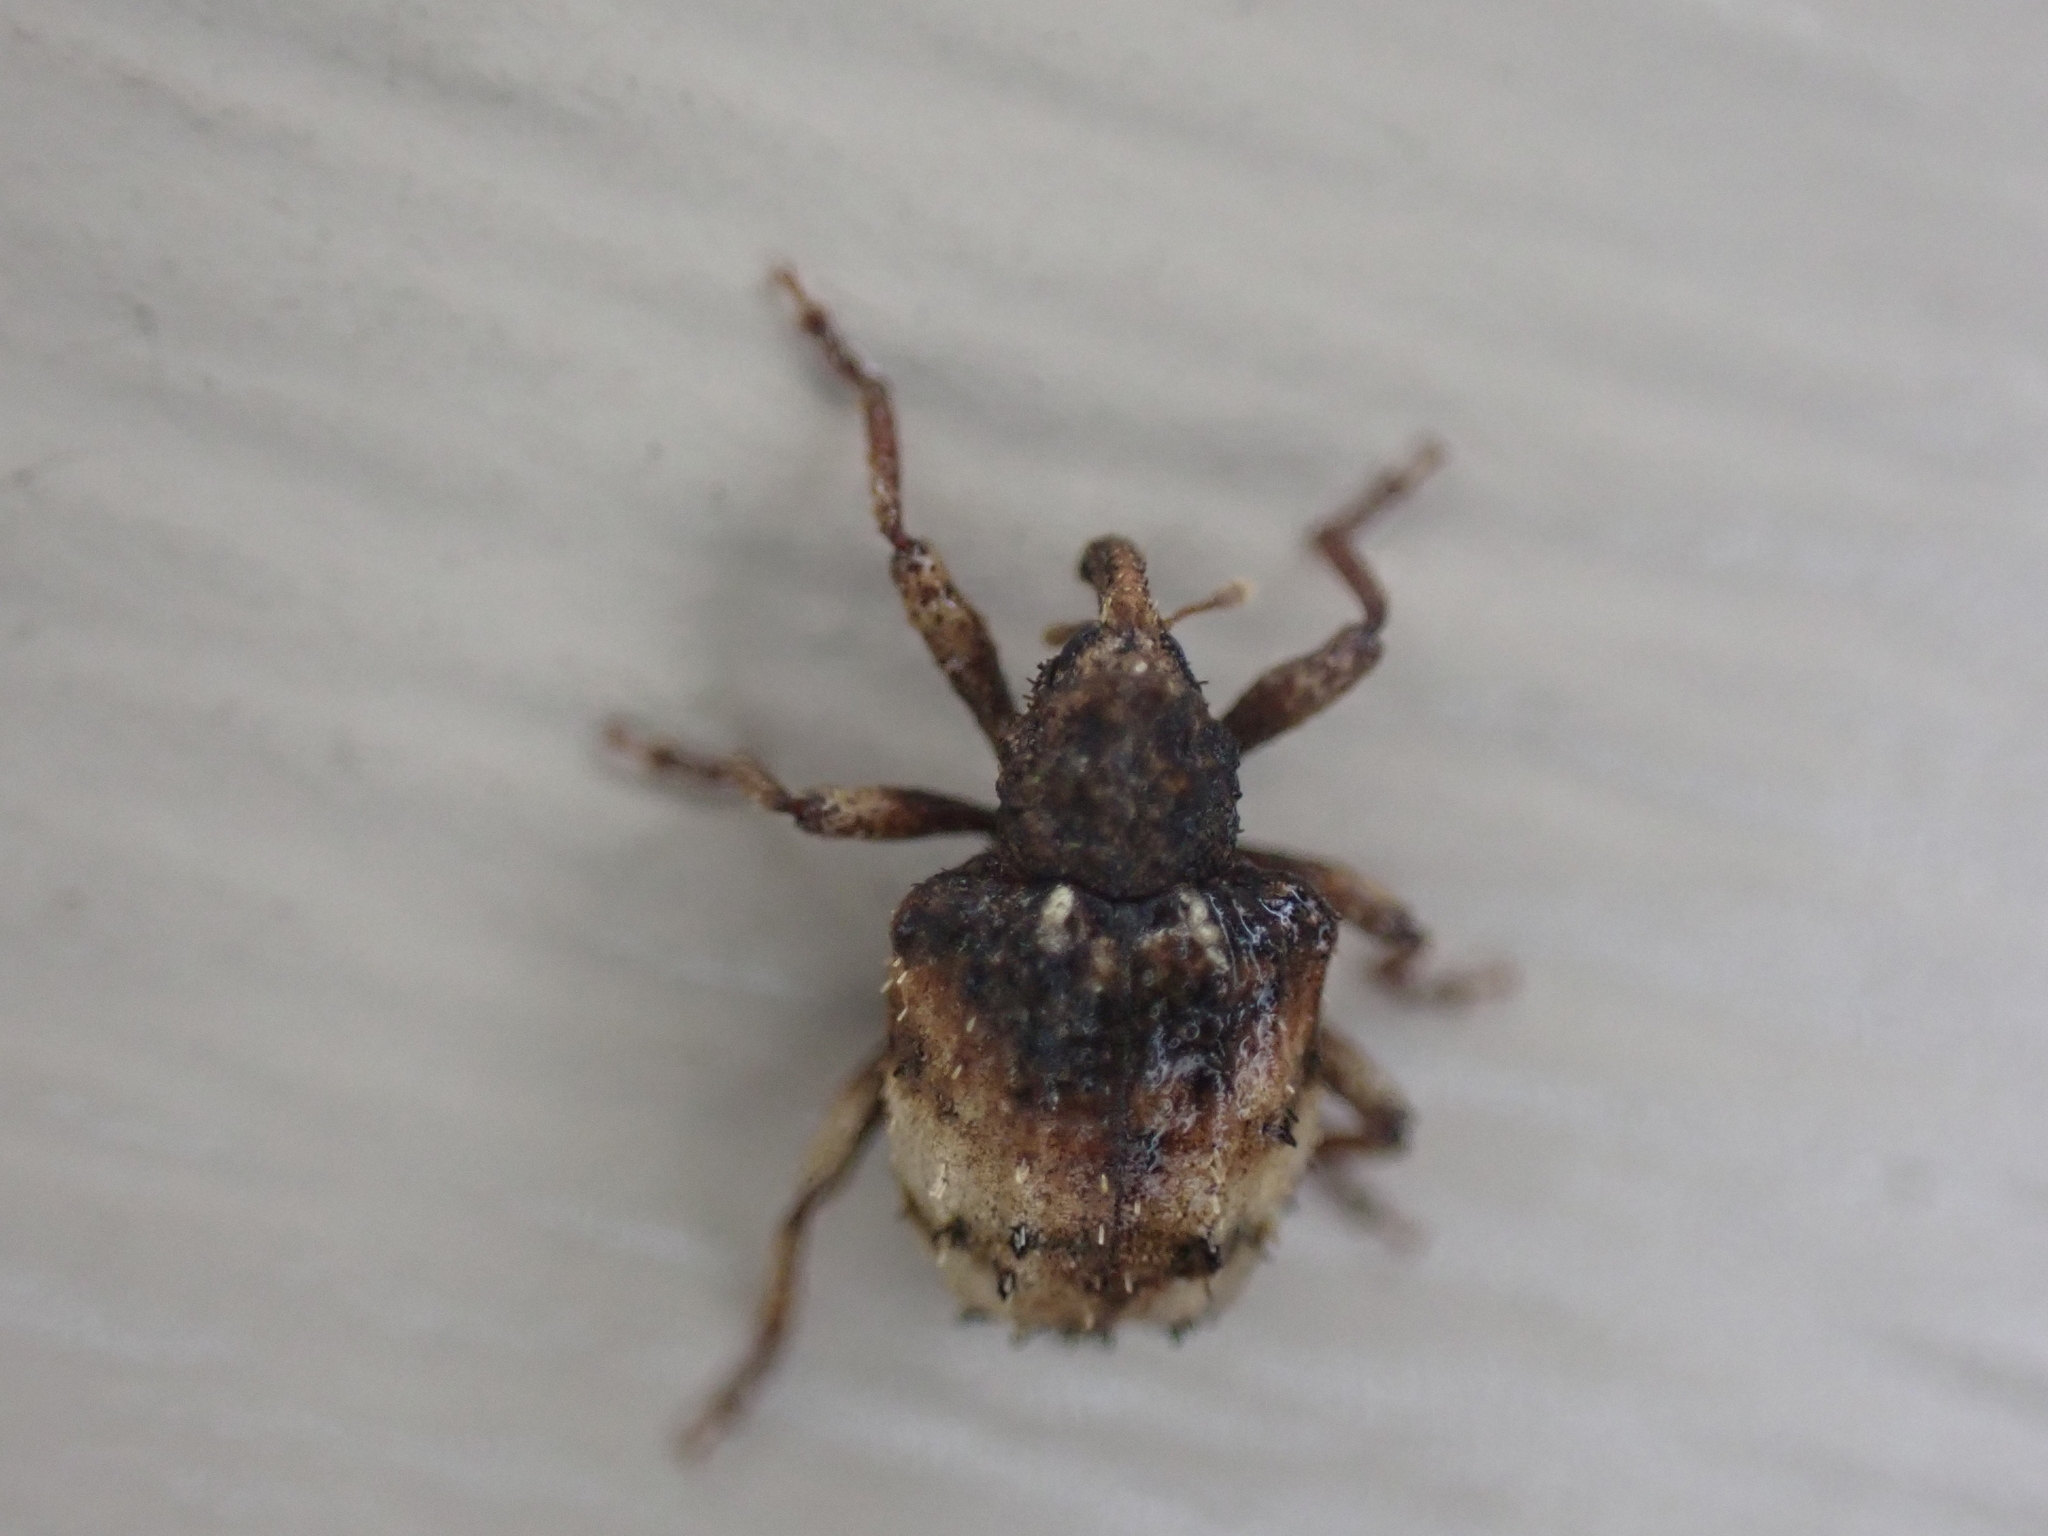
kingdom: Animalia
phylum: Arthropoda
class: Insecta
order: Coleoptera
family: Curculionidae
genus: Phyrdenus
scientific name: Phyrdenus divergens
